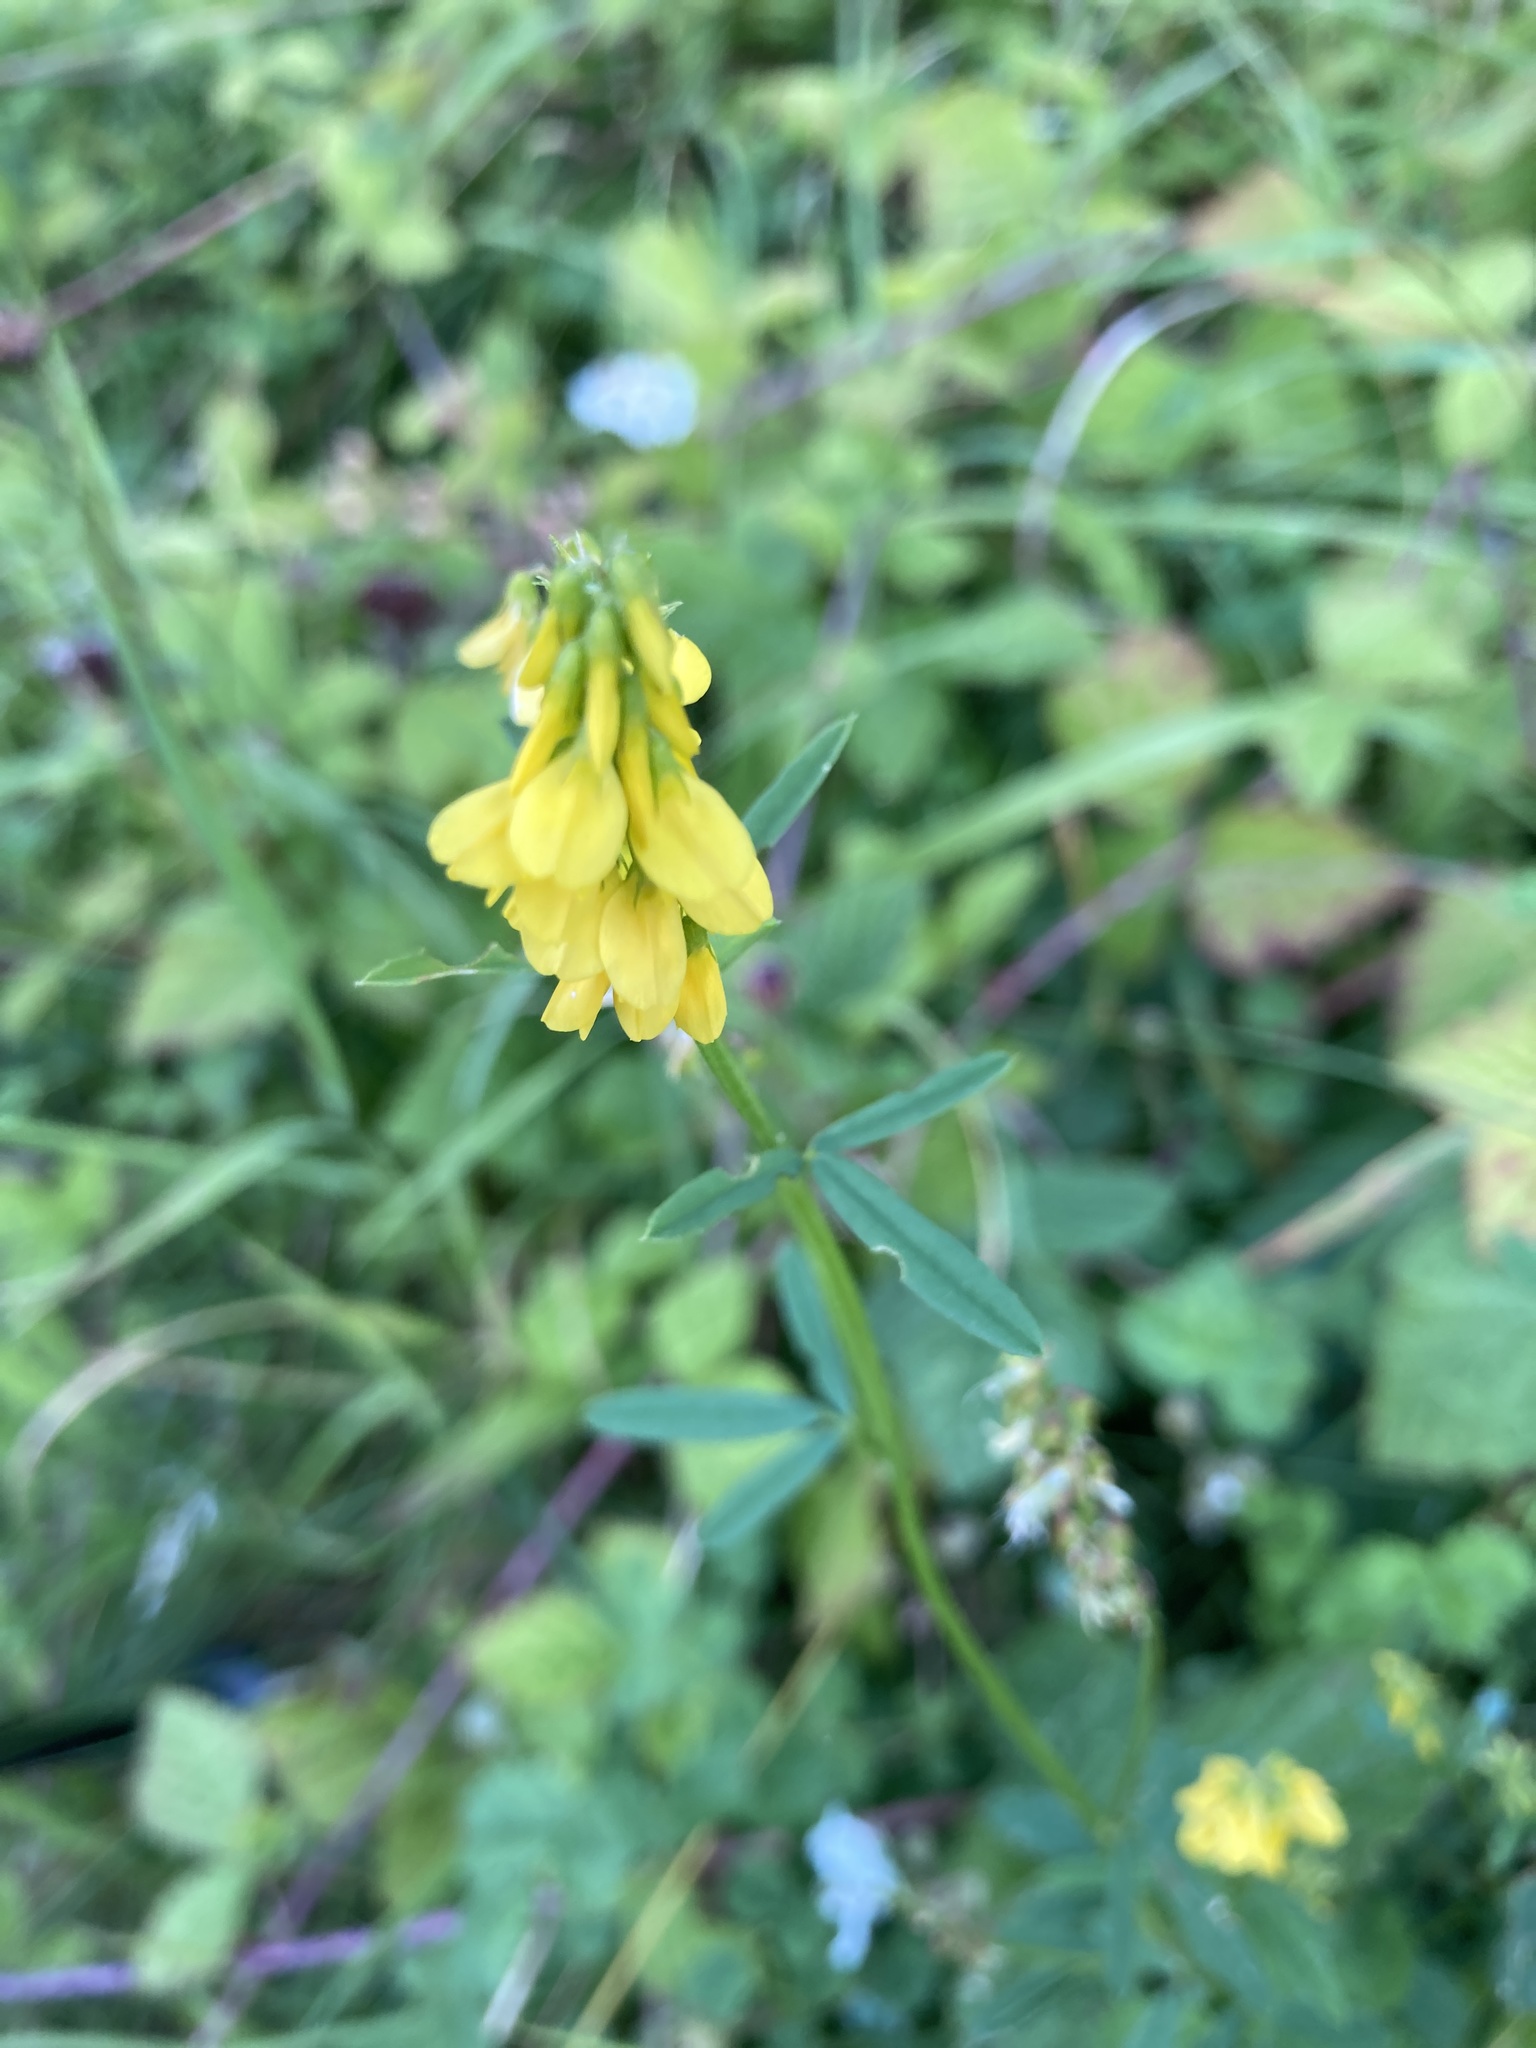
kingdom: Plantae
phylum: Tracheophyta
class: Magnoliopsida
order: Fabales
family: Fabaceae
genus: Melilotus
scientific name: Melilotus officinalis
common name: Sweetclover
